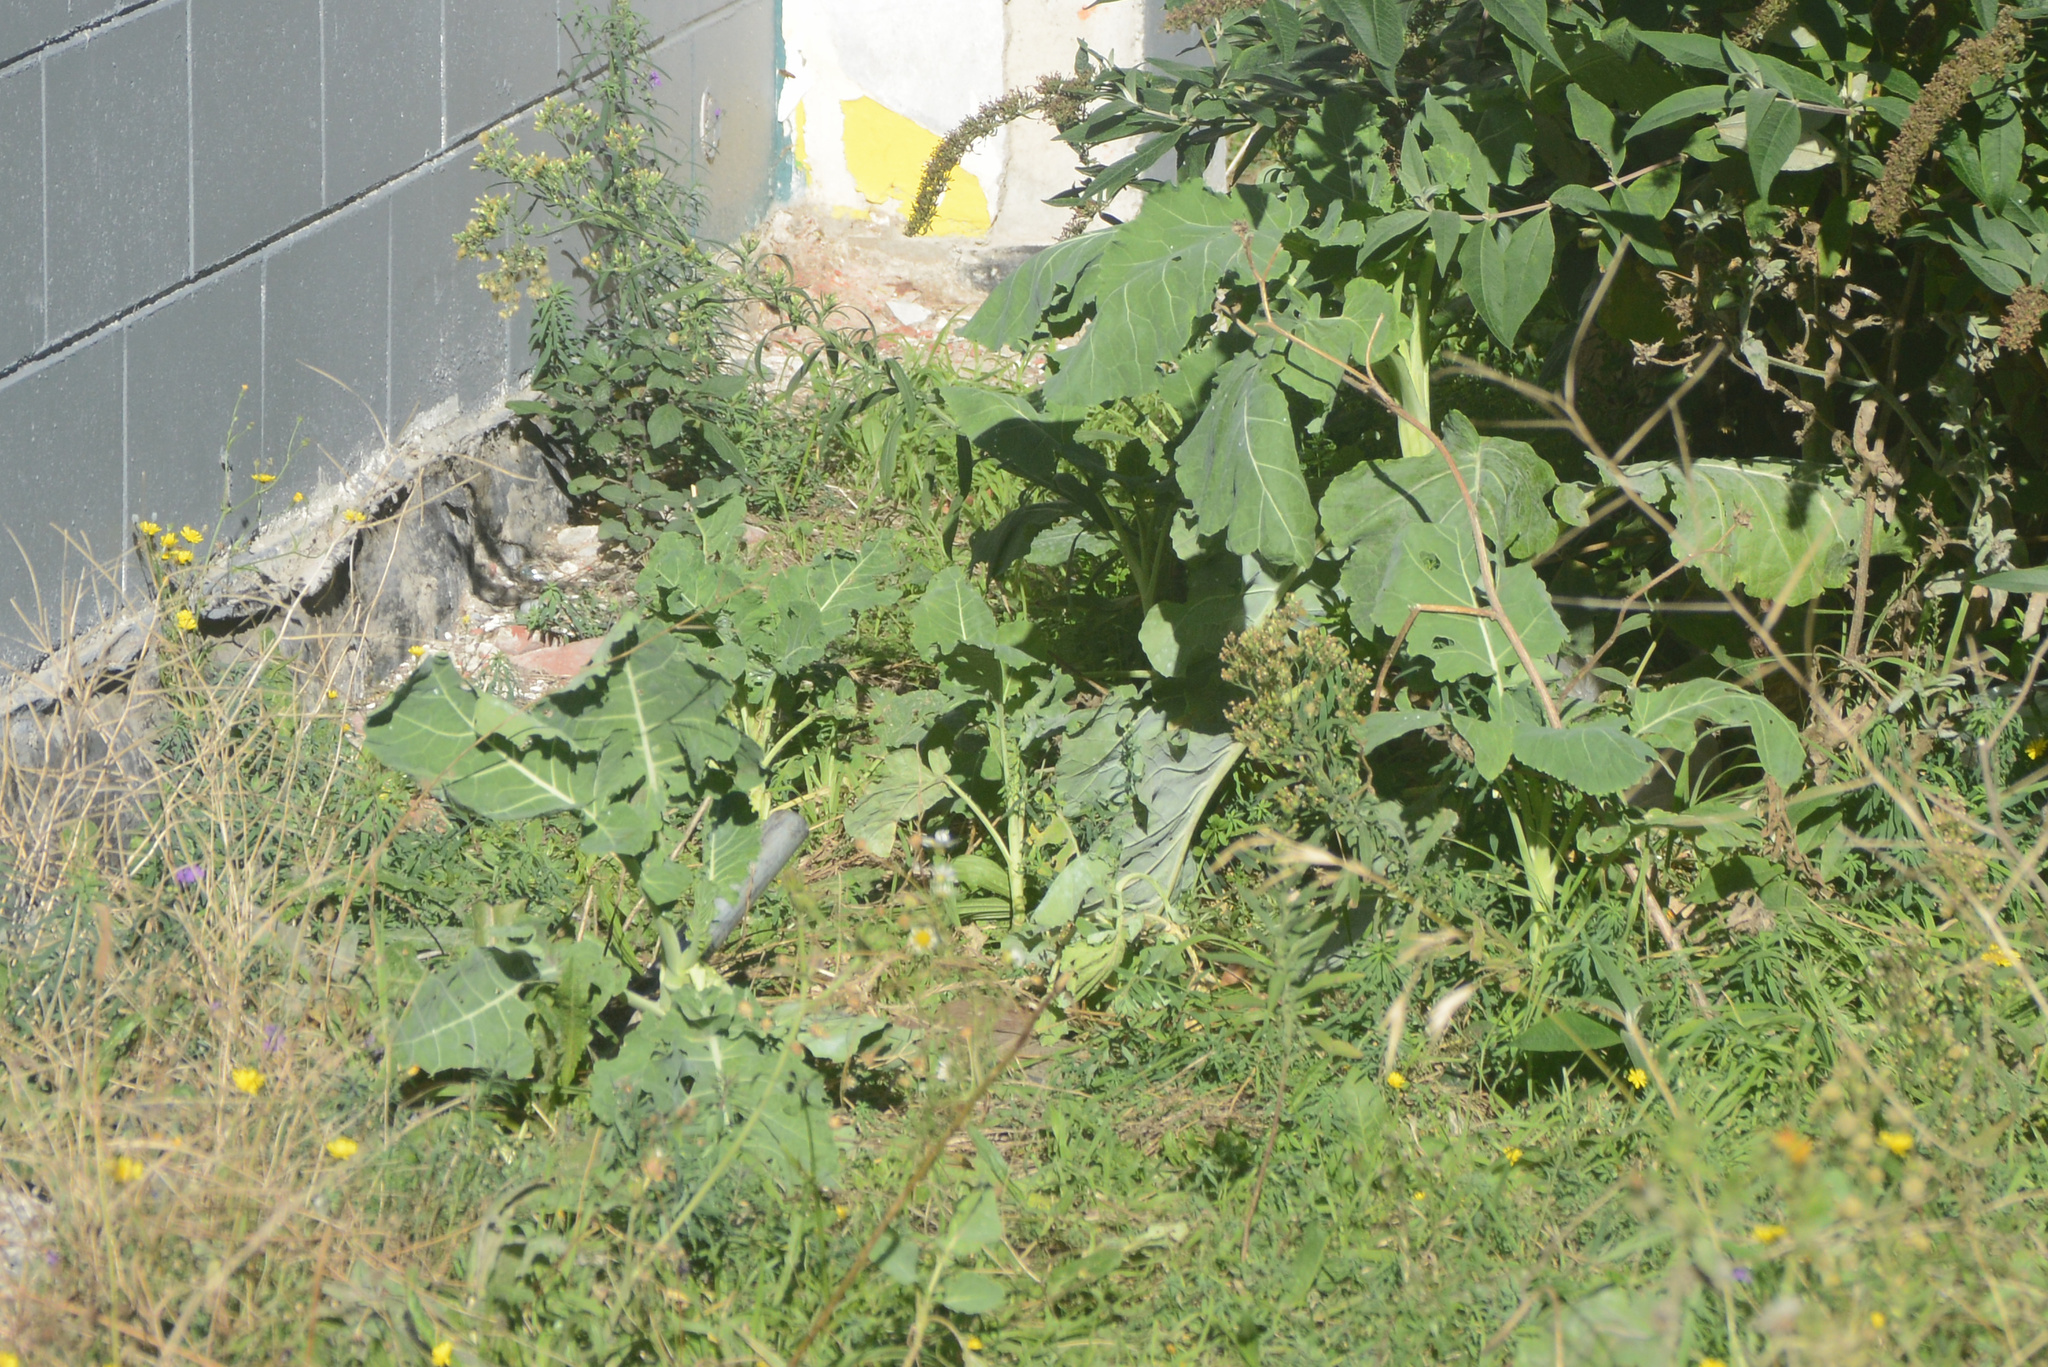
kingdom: Plantae
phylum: Tracheophyta
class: Magnoliopsida
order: Brassicales
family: Brassicaceae
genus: Brassica
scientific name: Brassica oleracea
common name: Cabbage
